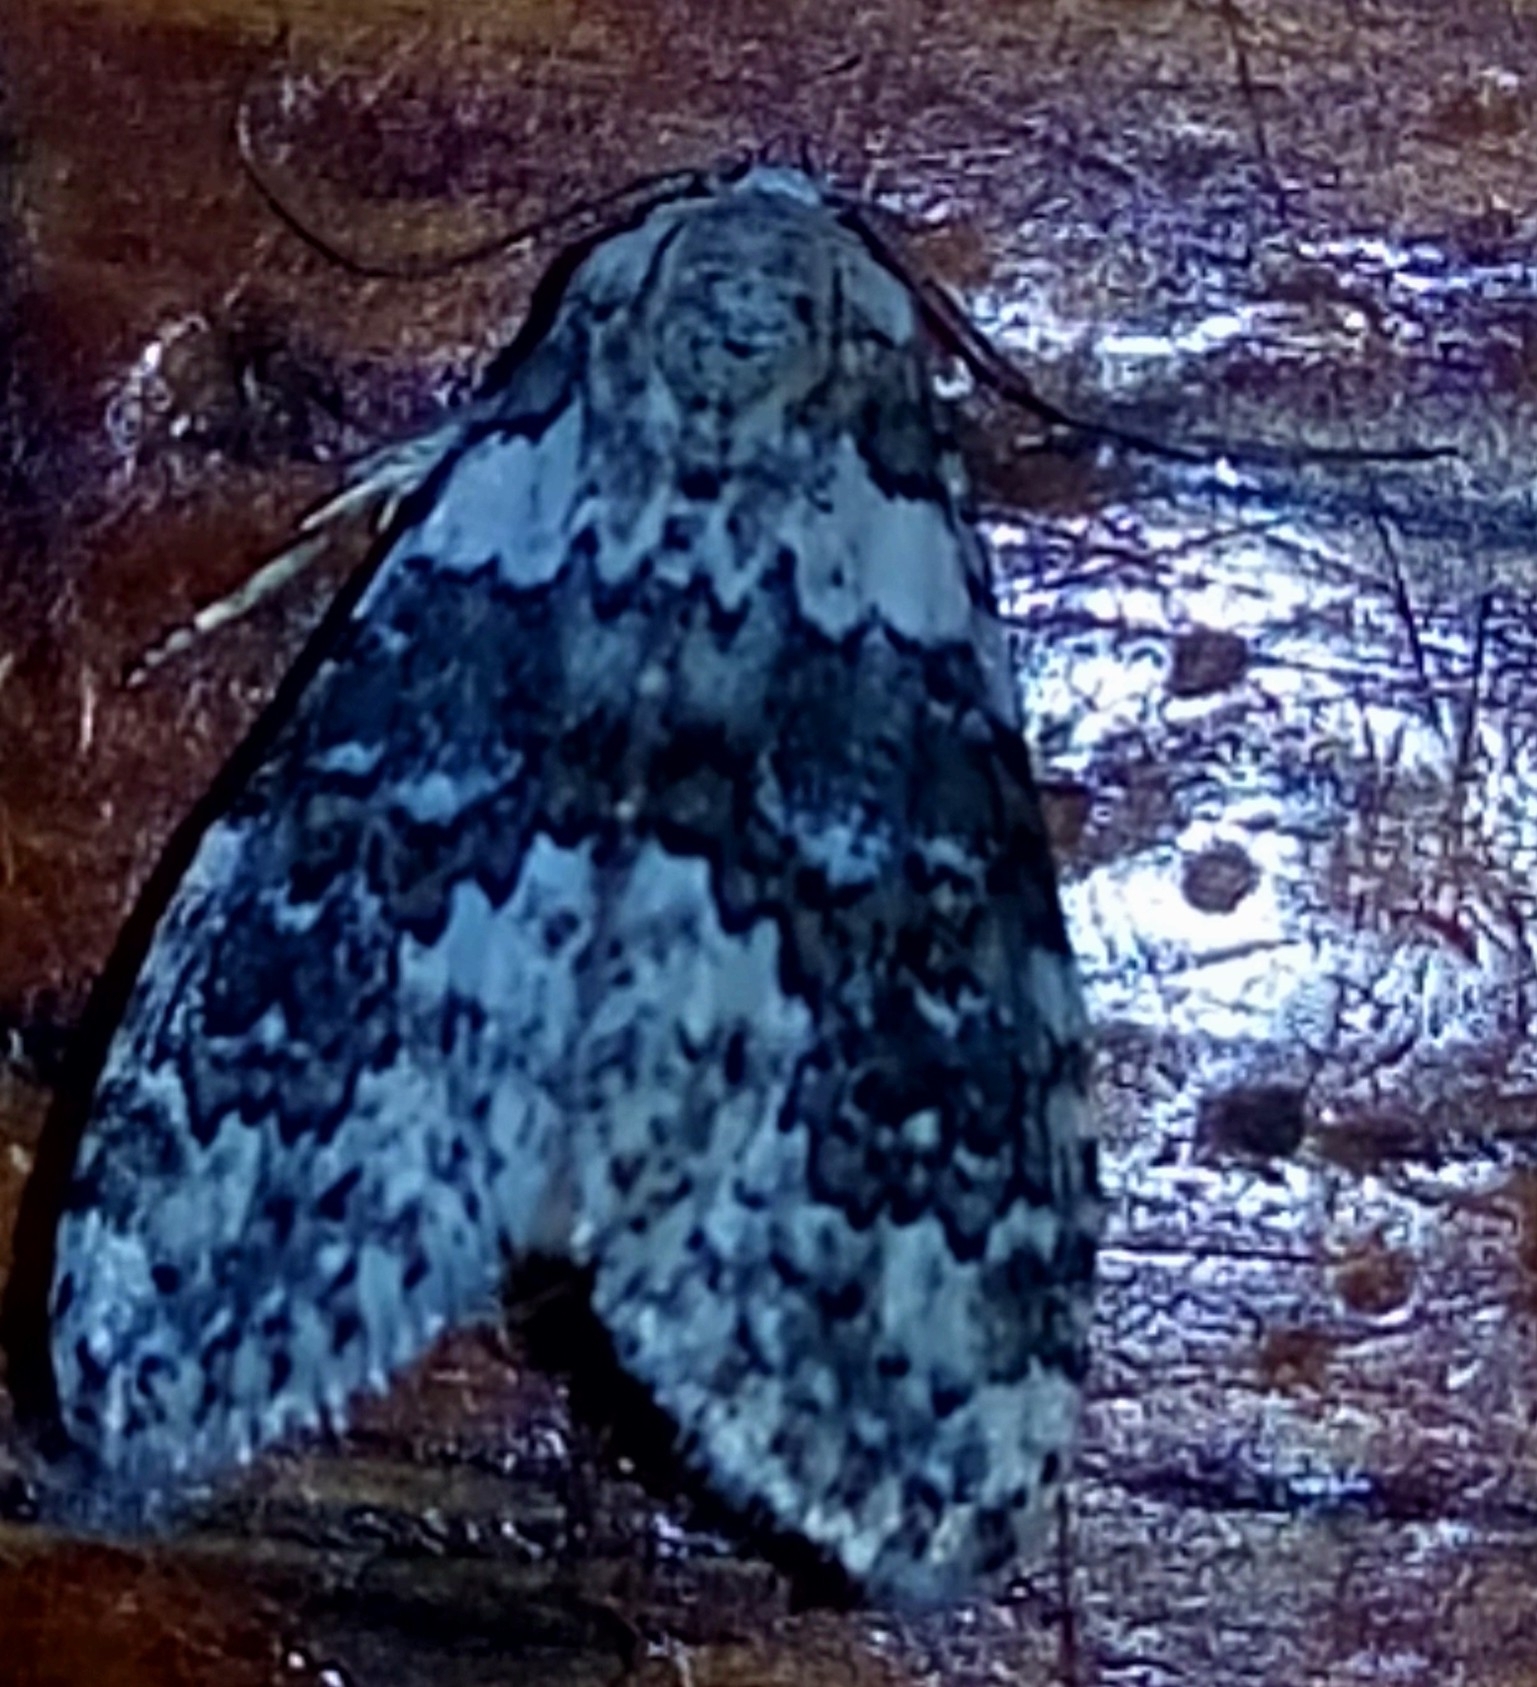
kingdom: Animalia
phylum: Arthropoda
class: Insecta
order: Lepidoptera
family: Noctuidae
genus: Bryophila
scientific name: Bryophila domestica
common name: Marbled beauty
